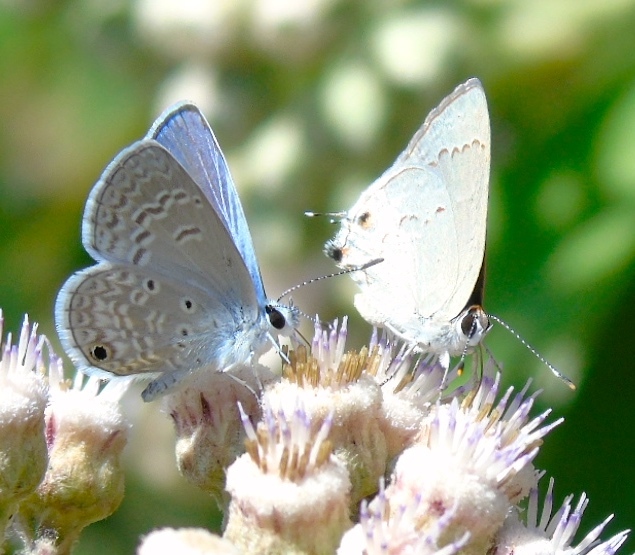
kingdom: Animalia
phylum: Arthropoda
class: Insecta
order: Lepidoptera
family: Lycaenidae
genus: Echinargus
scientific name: Echinargus isola
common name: Reakirt's blue
